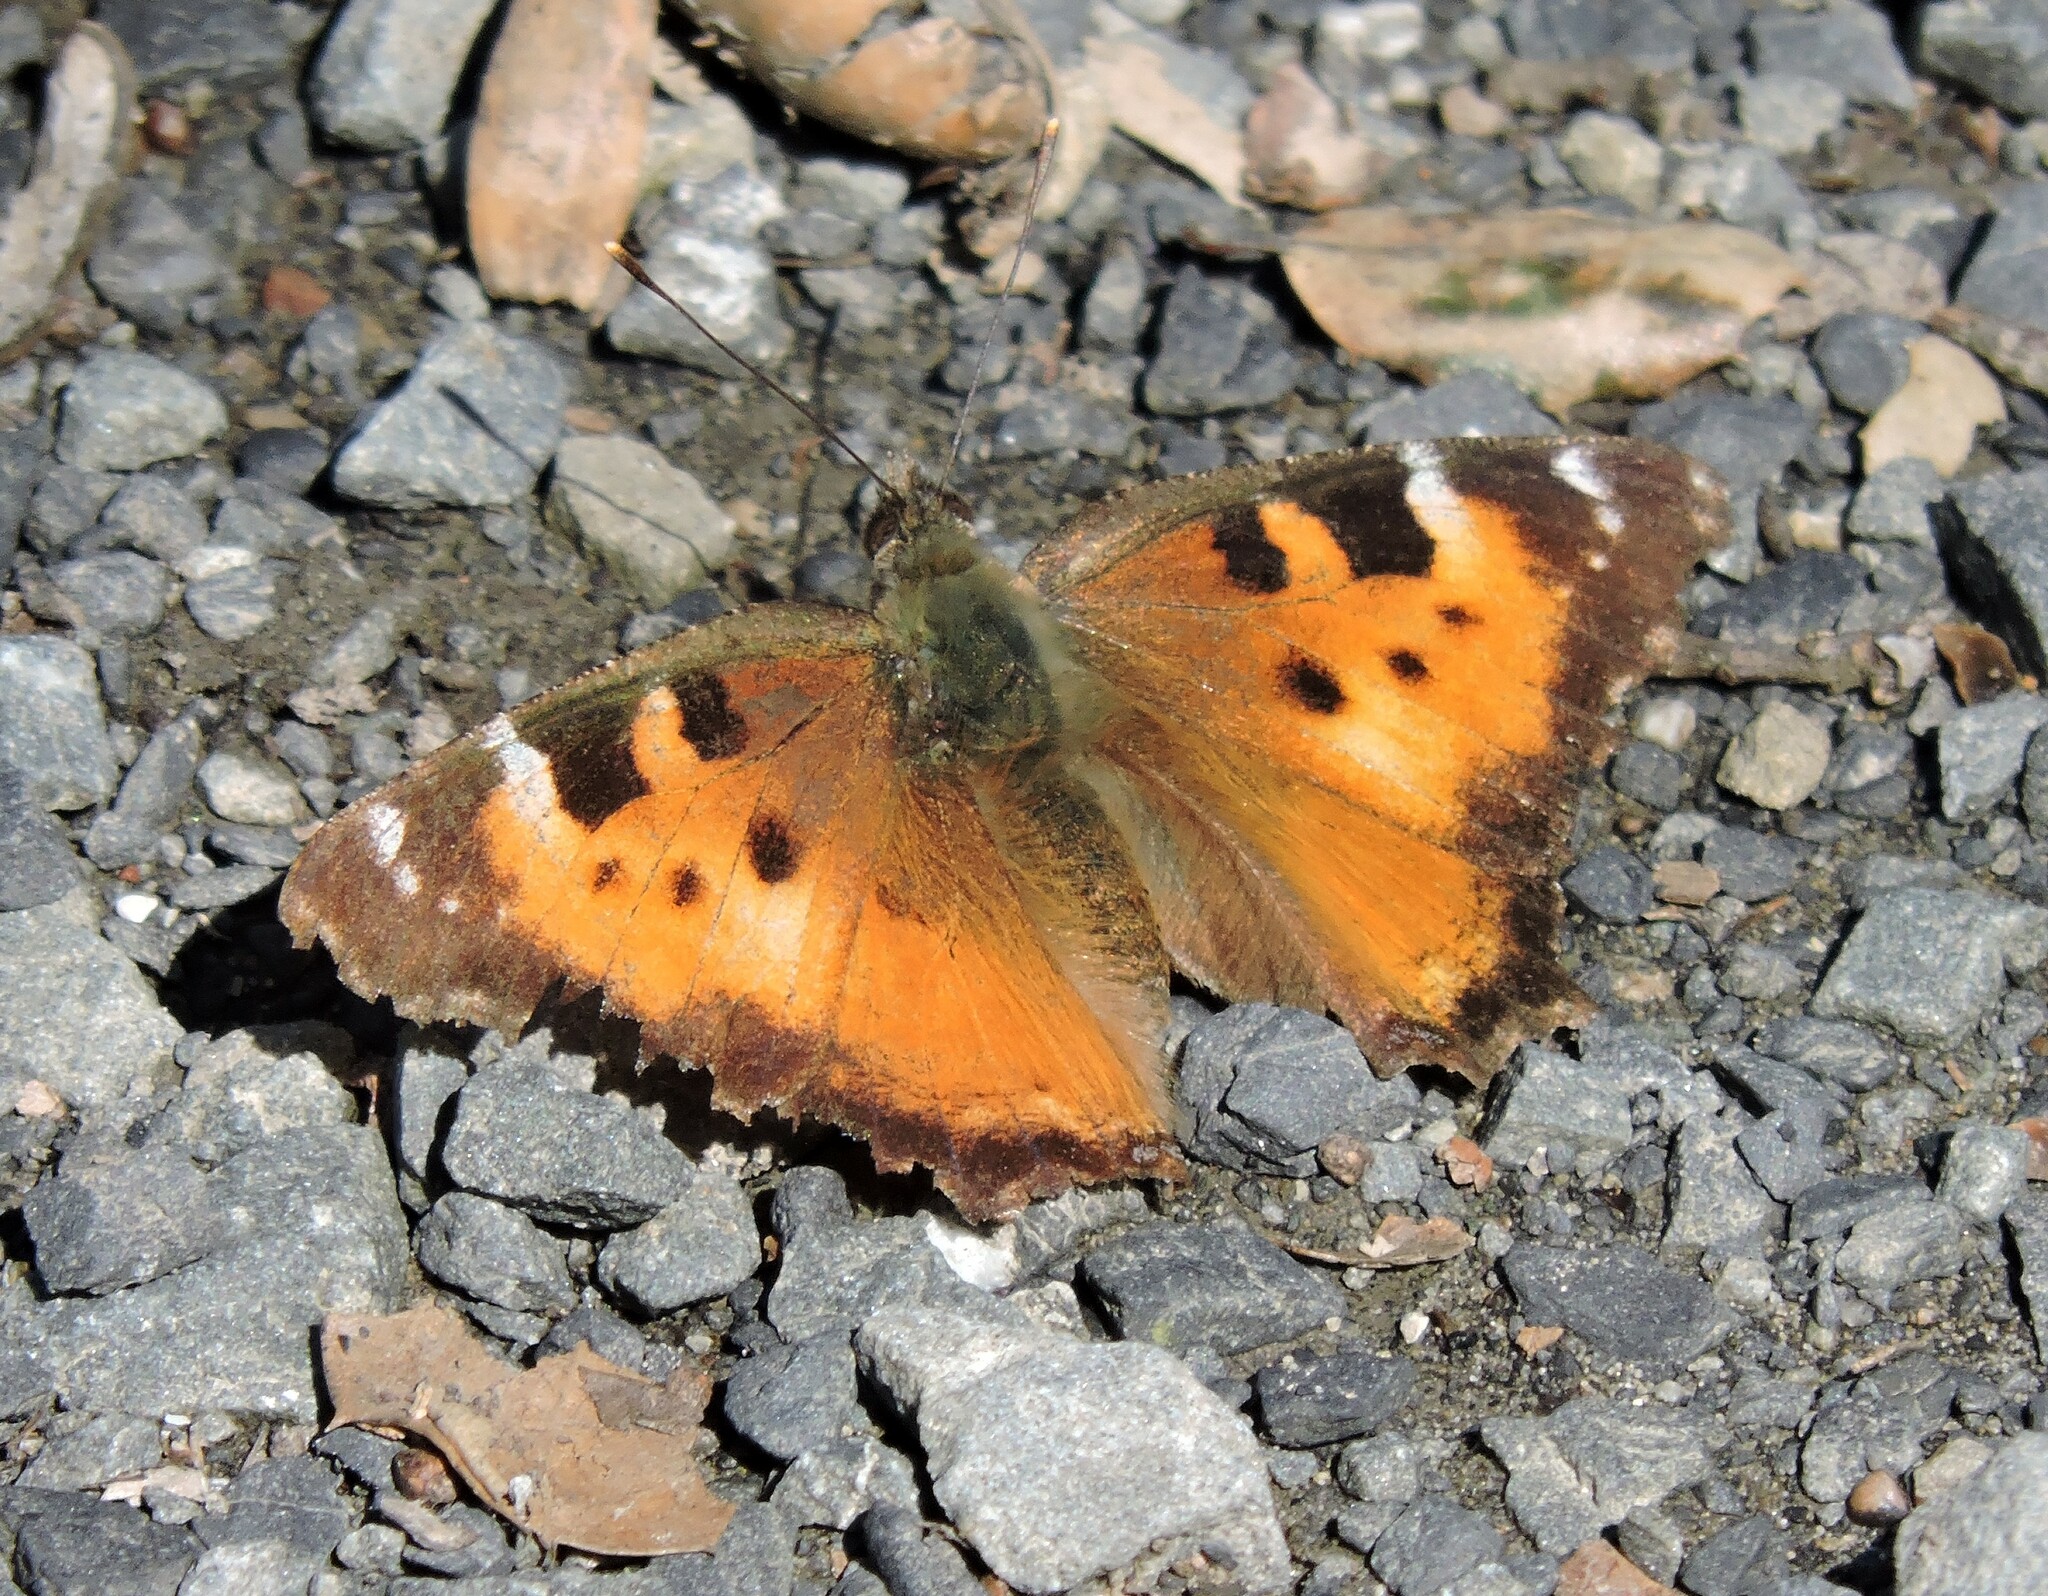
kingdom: Animalia
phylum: Arthropoda
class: Insecta
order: Lepidoptera
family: Nymphalidae
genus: Nymphalis
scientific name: Nymphalis californica
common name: California tortoiseshell
